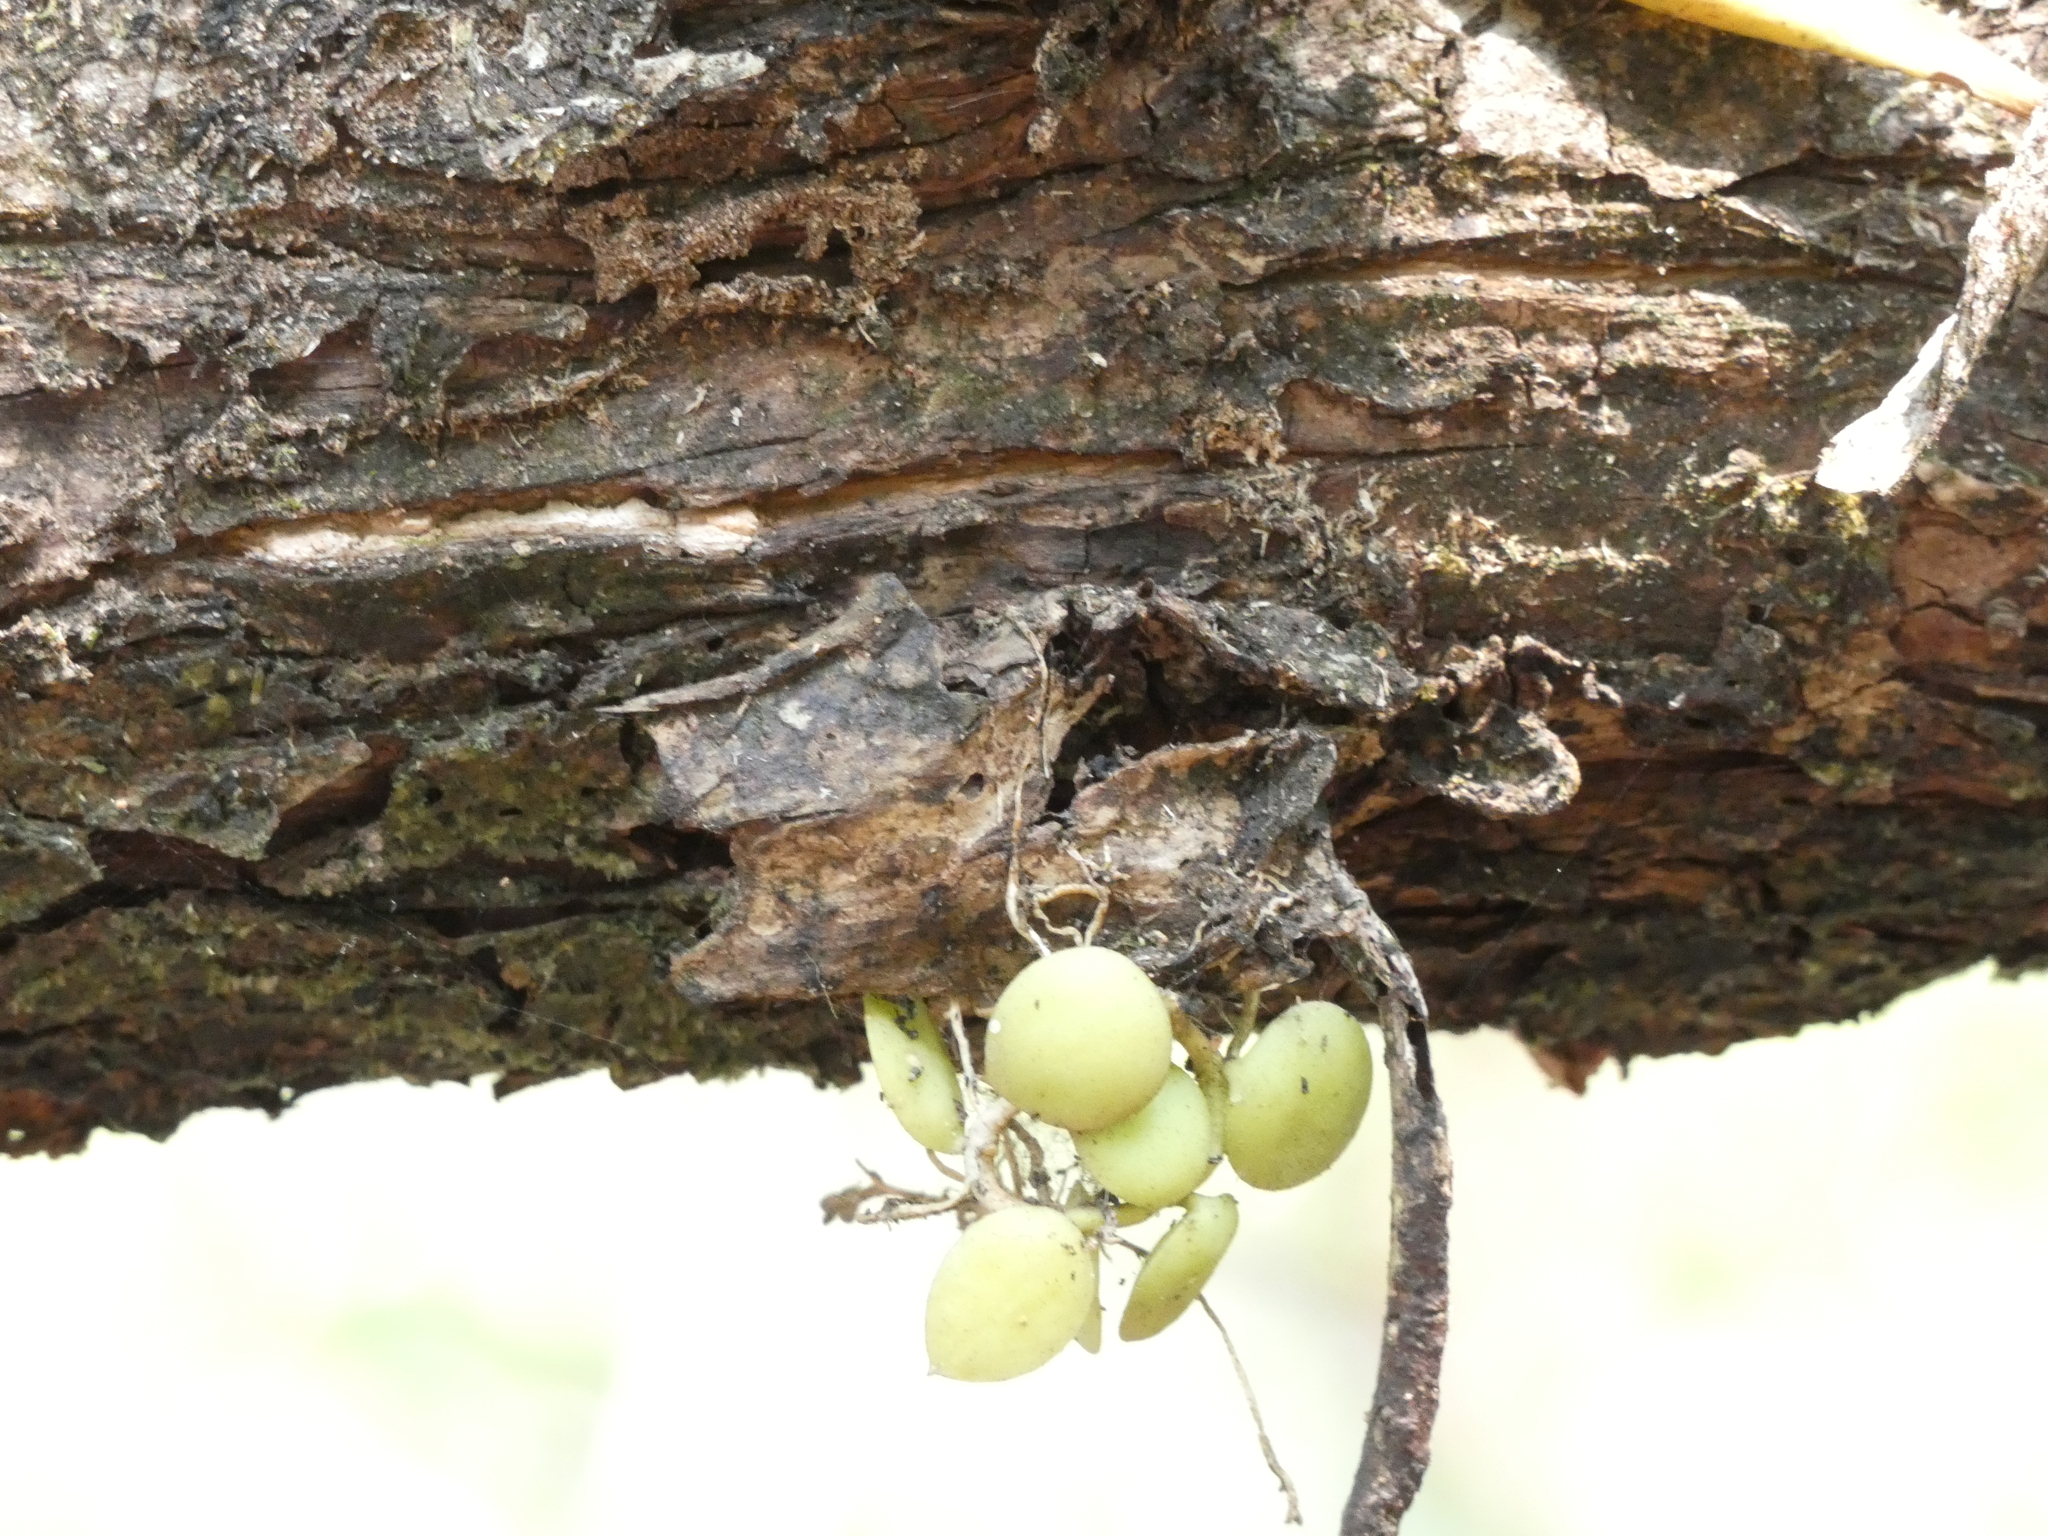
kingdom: Plantae
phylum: Tracheophyta
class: Magnoliopsida
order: Gentianales
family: Apocynaceae
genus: Dischidia
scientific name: Dischidia nummularia
